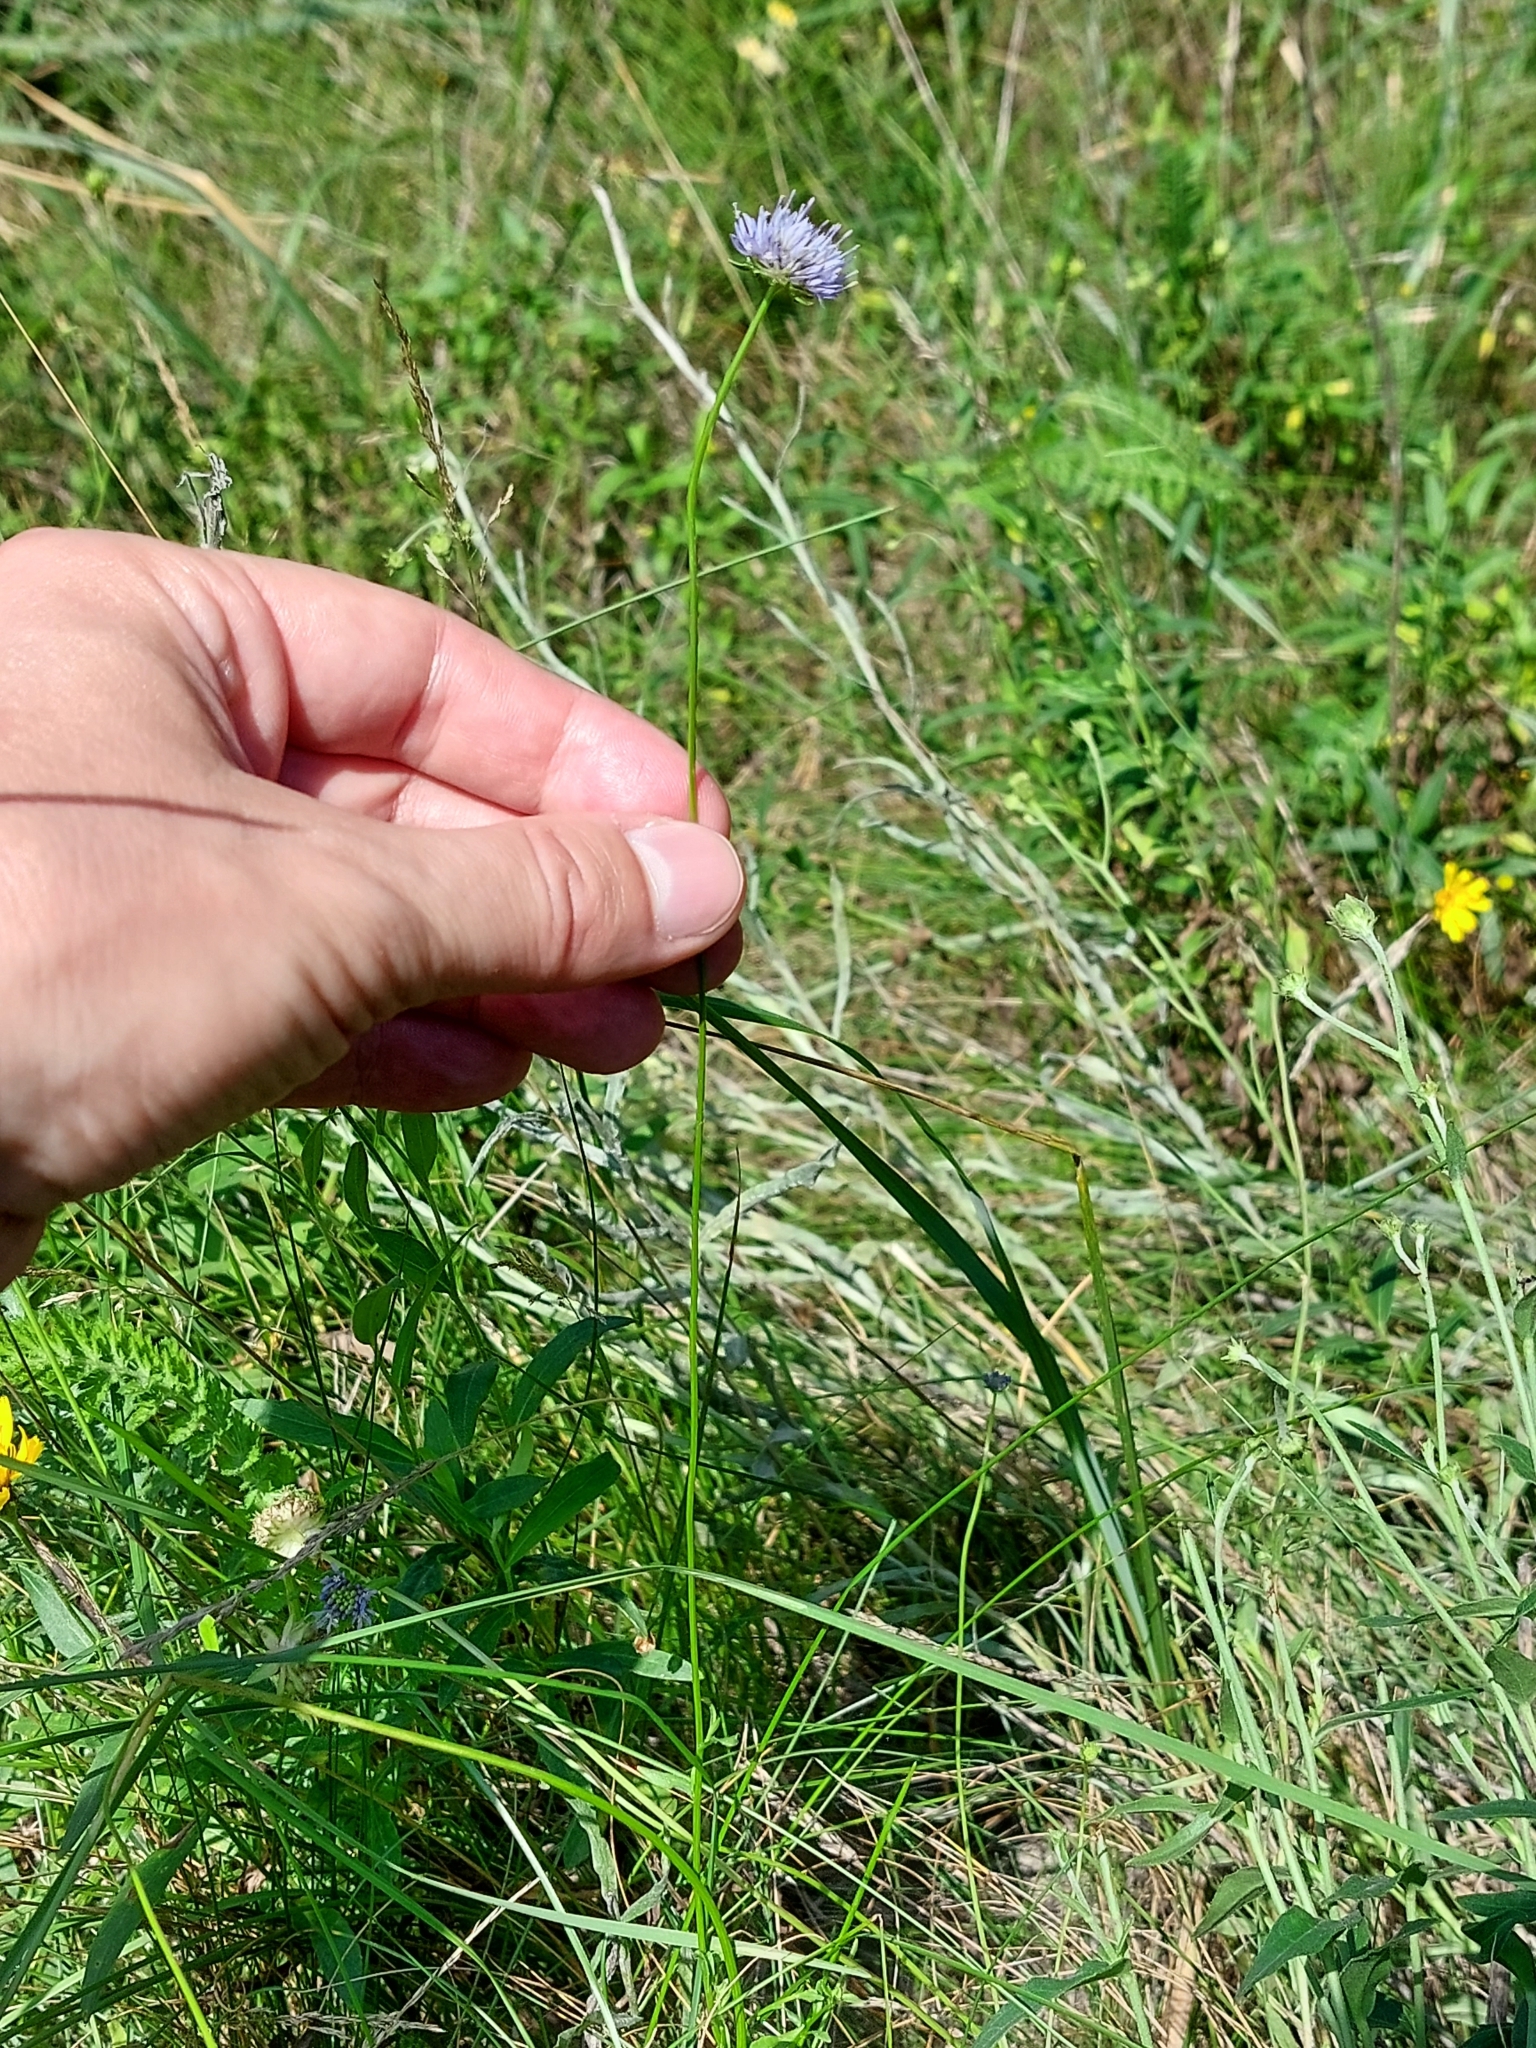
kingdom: Plantae
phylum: Tracheophyta
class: Magnoliopsida
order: Asterales
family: Campanulaceae
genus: Jasione
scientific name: Jasione montana
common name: Sheep's-bit
